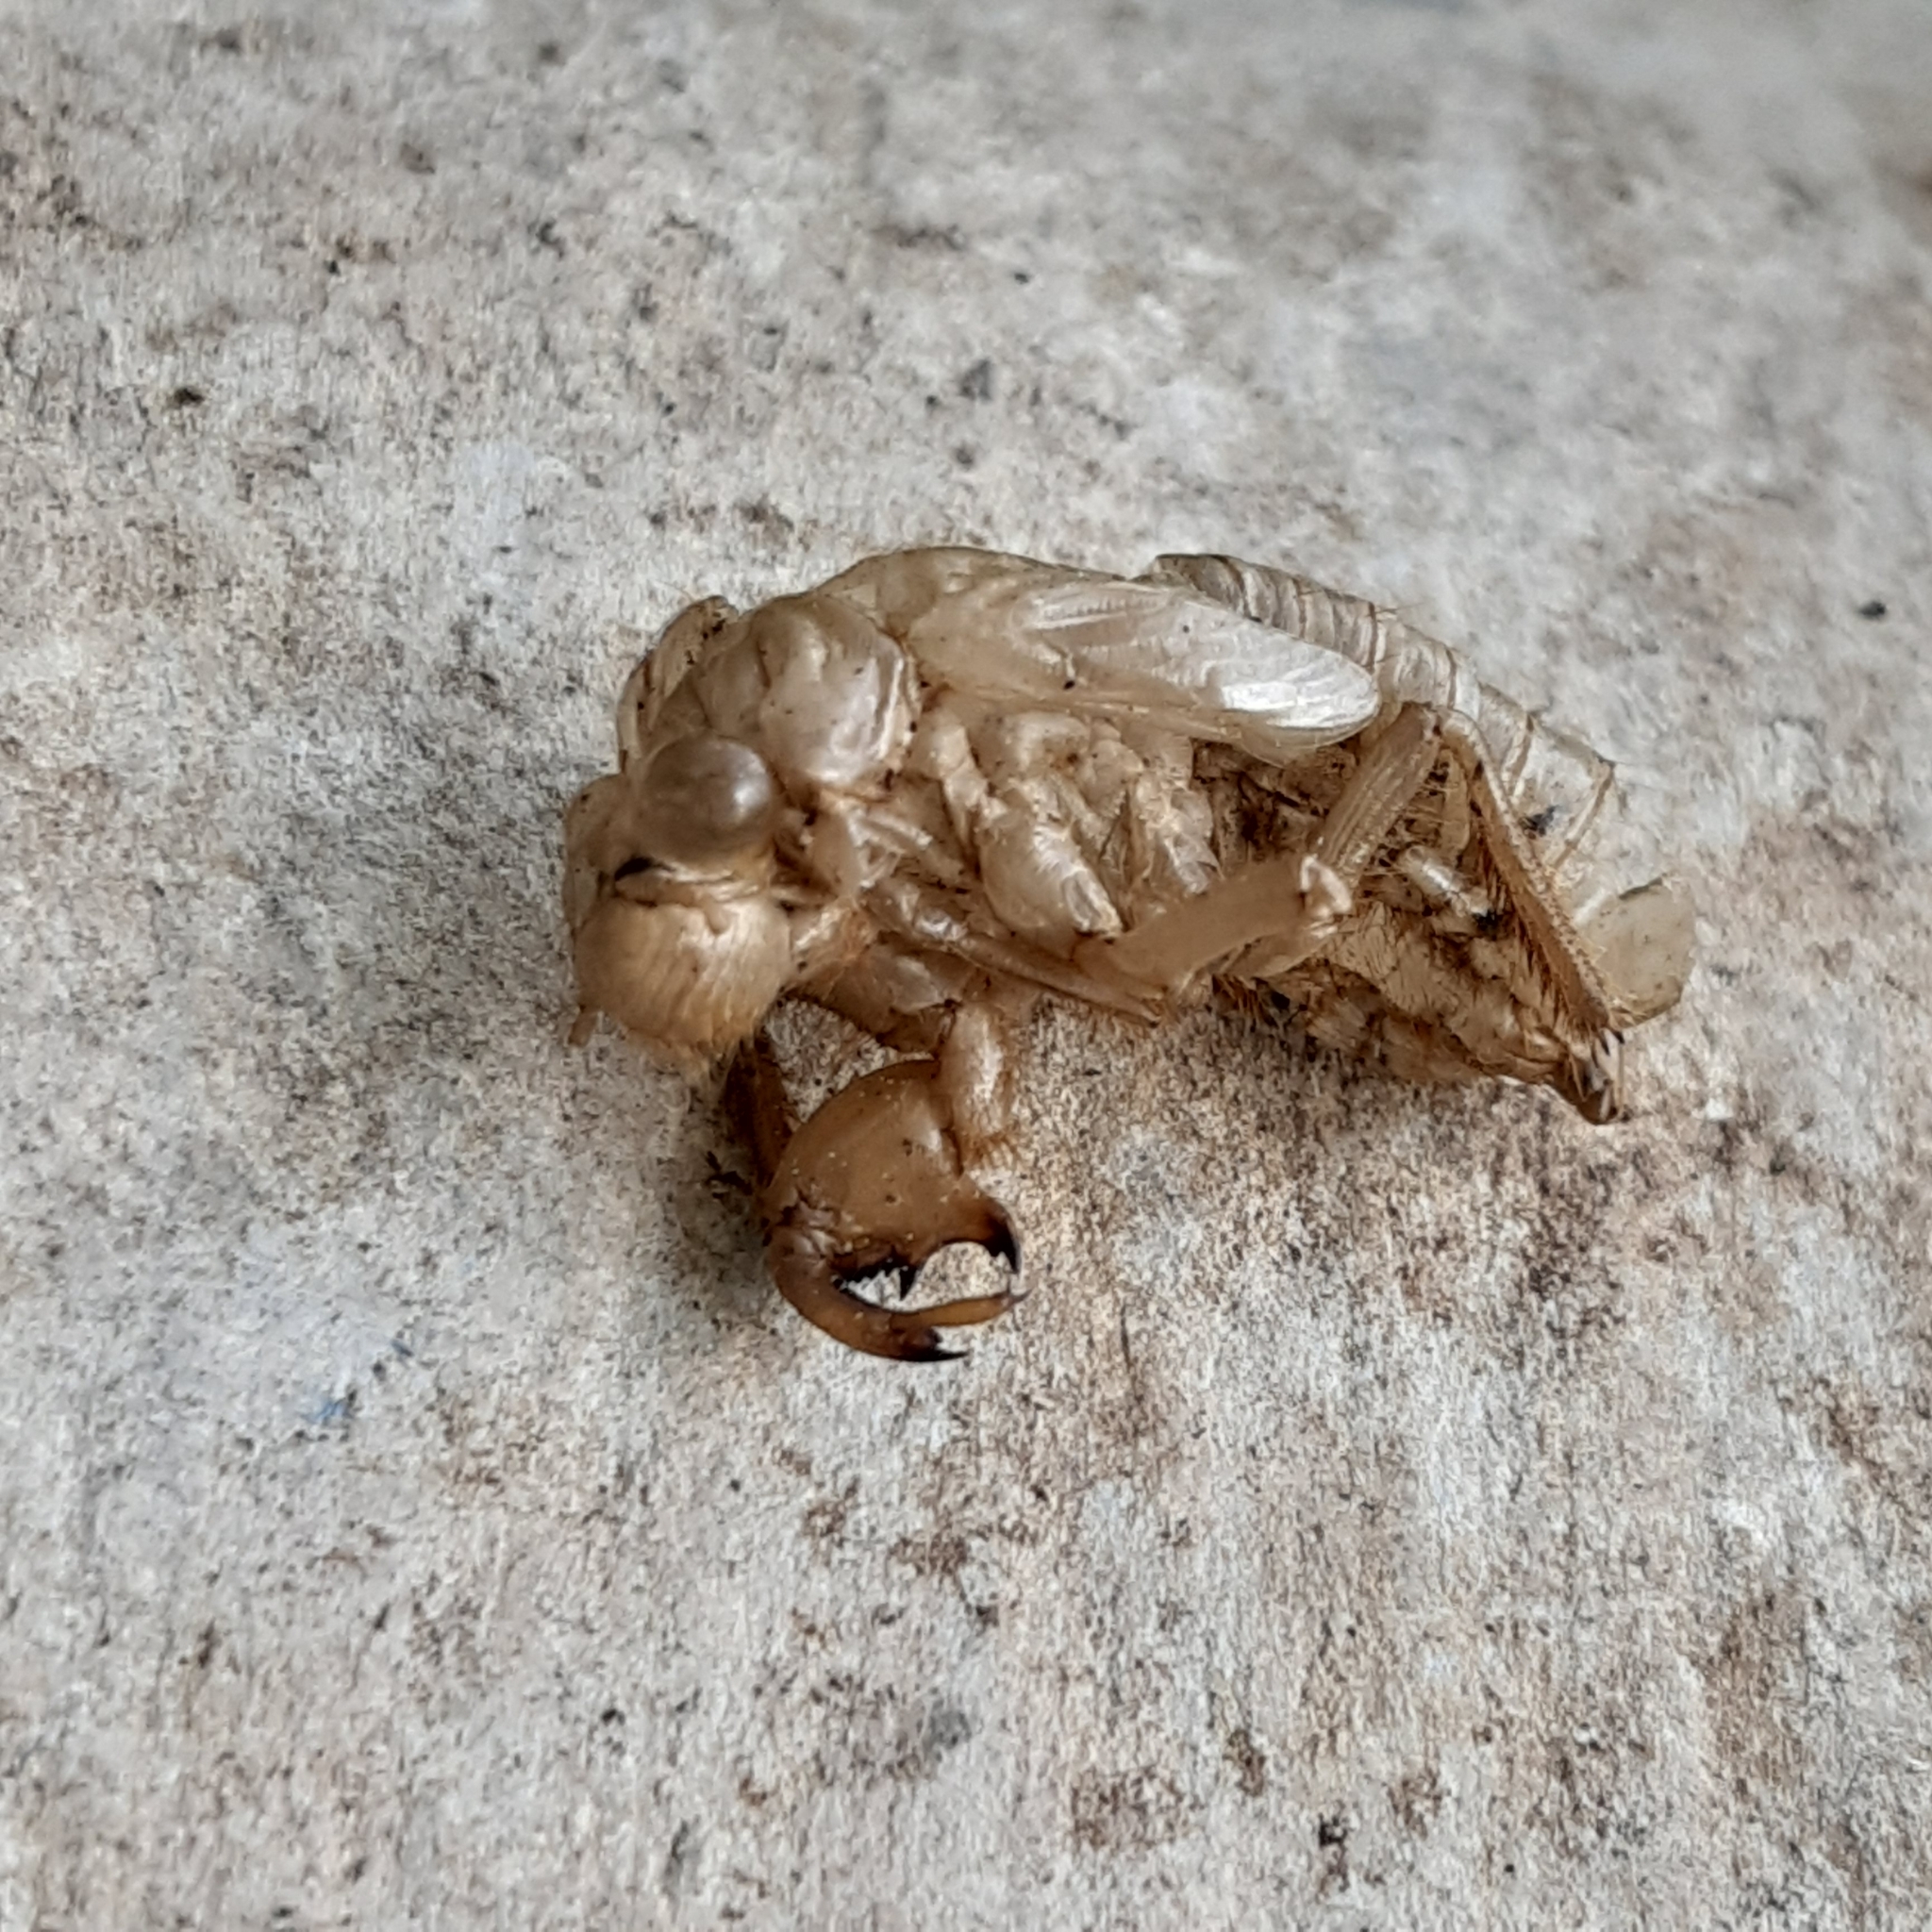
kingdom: Animalia
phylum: Arthropoda
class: Insecta
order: Hemiptera
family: Cicadidae
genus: Cicada
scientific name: Cicada orni
